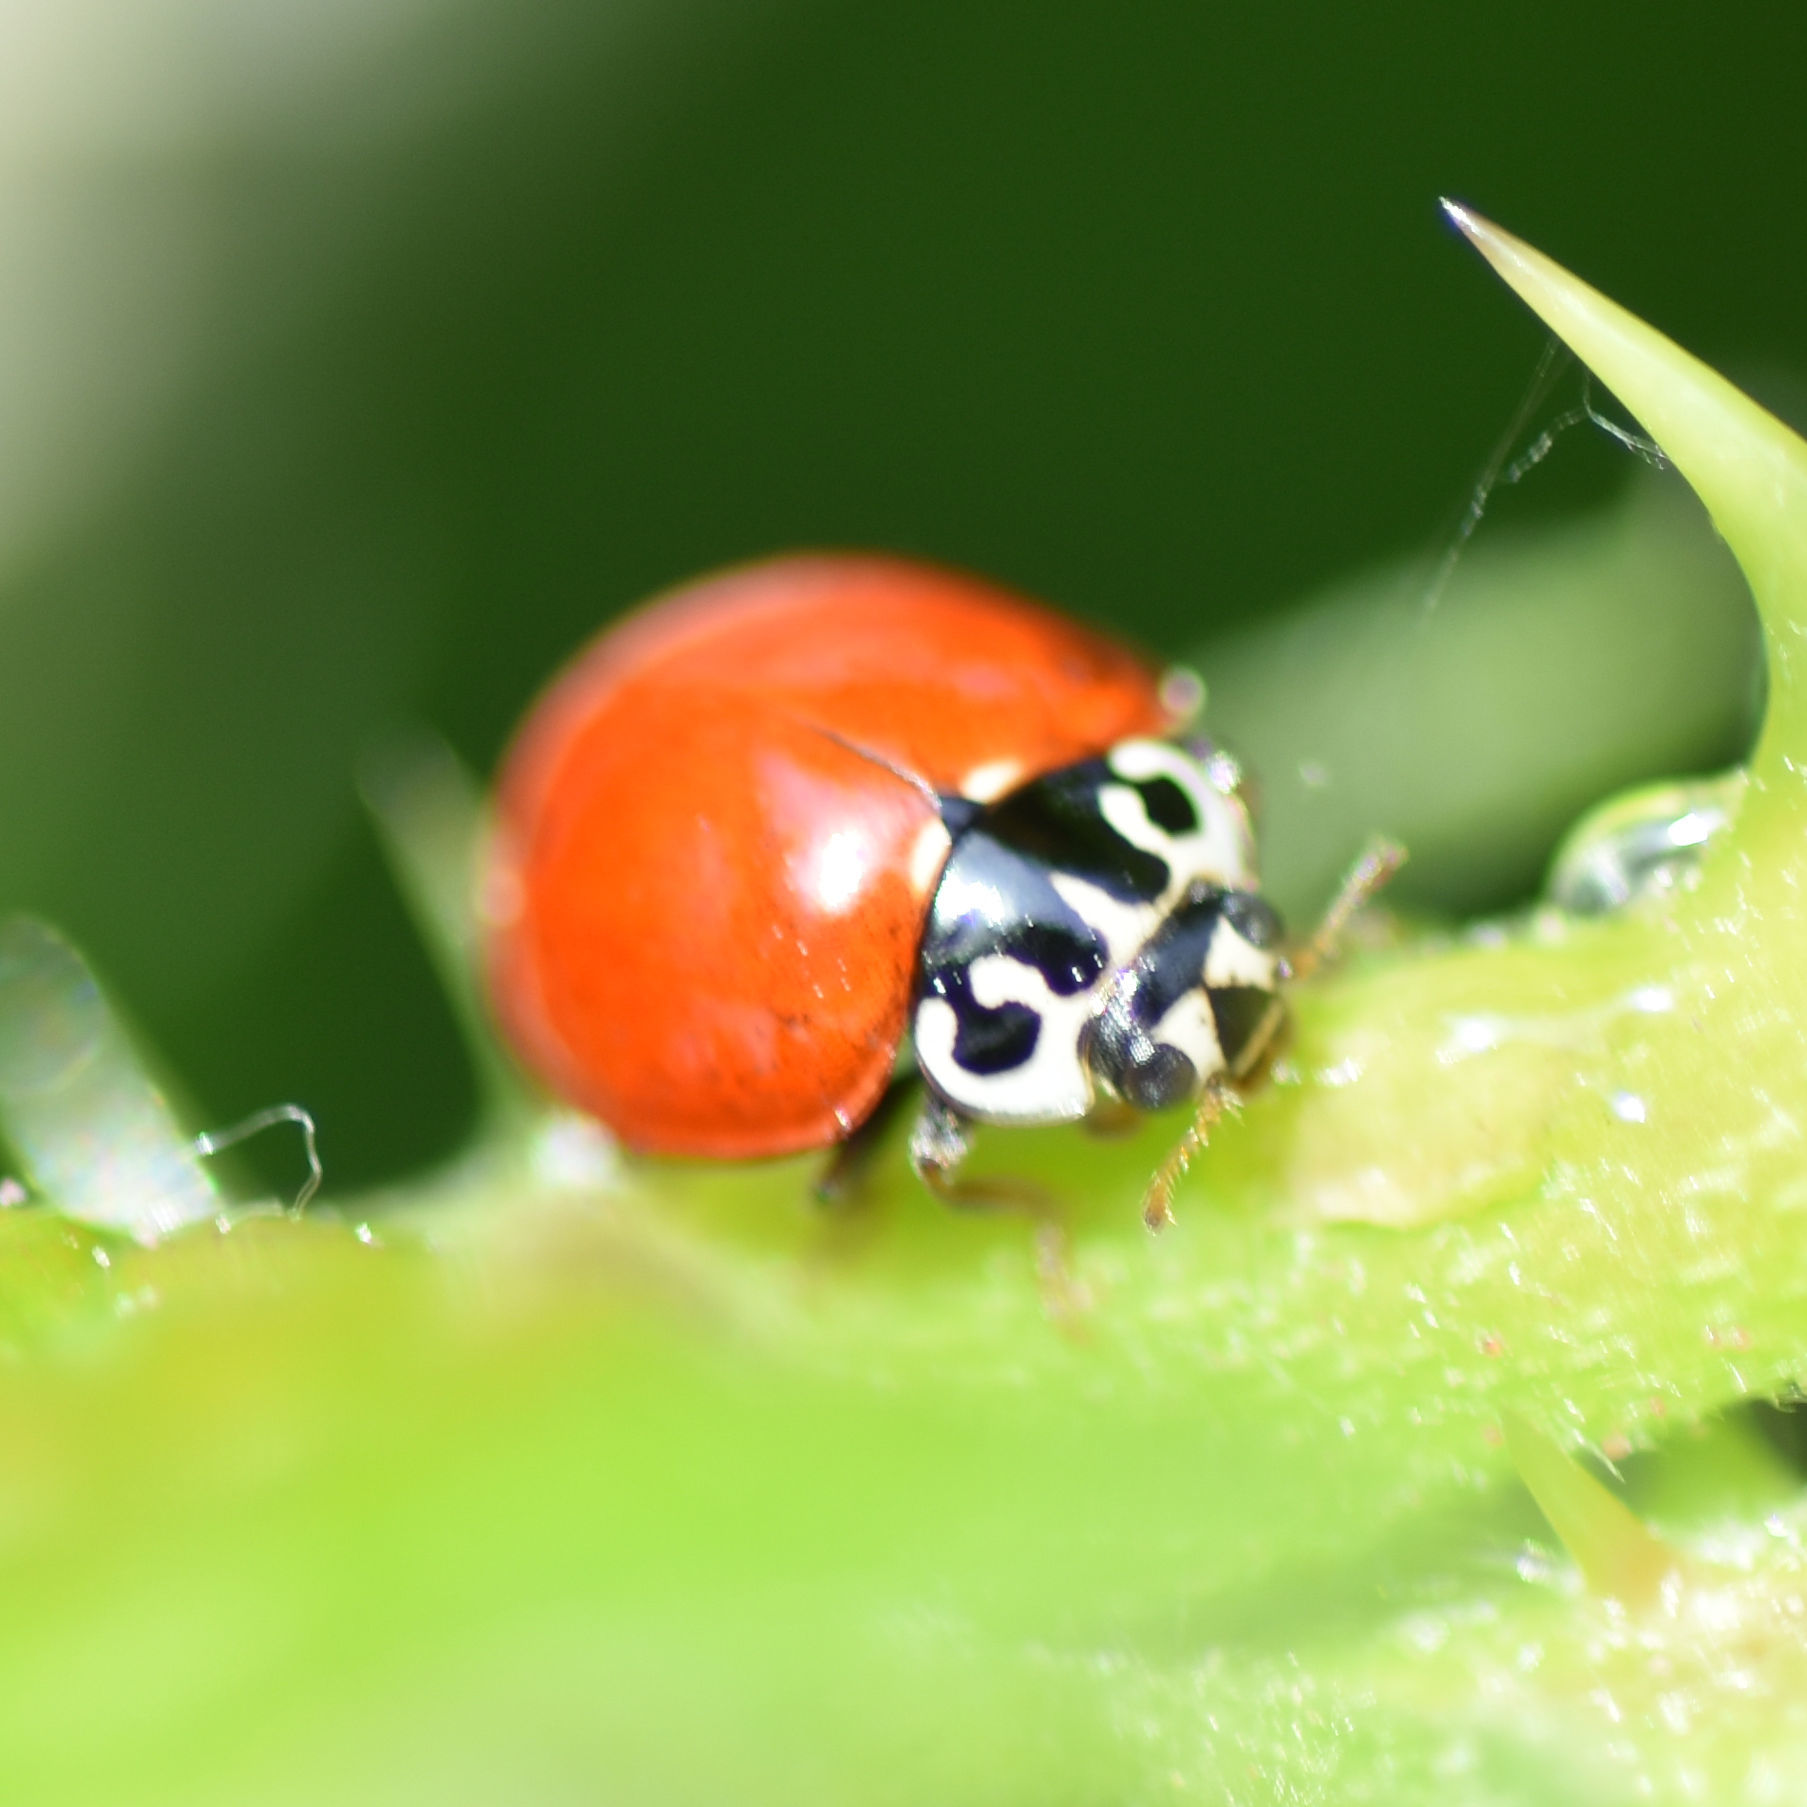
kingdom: Animalia
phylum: Arthropoda
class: Insecta
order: Coleoptera
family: Coccinellidae
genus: Cycloneda
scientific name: Cycloneda polita
